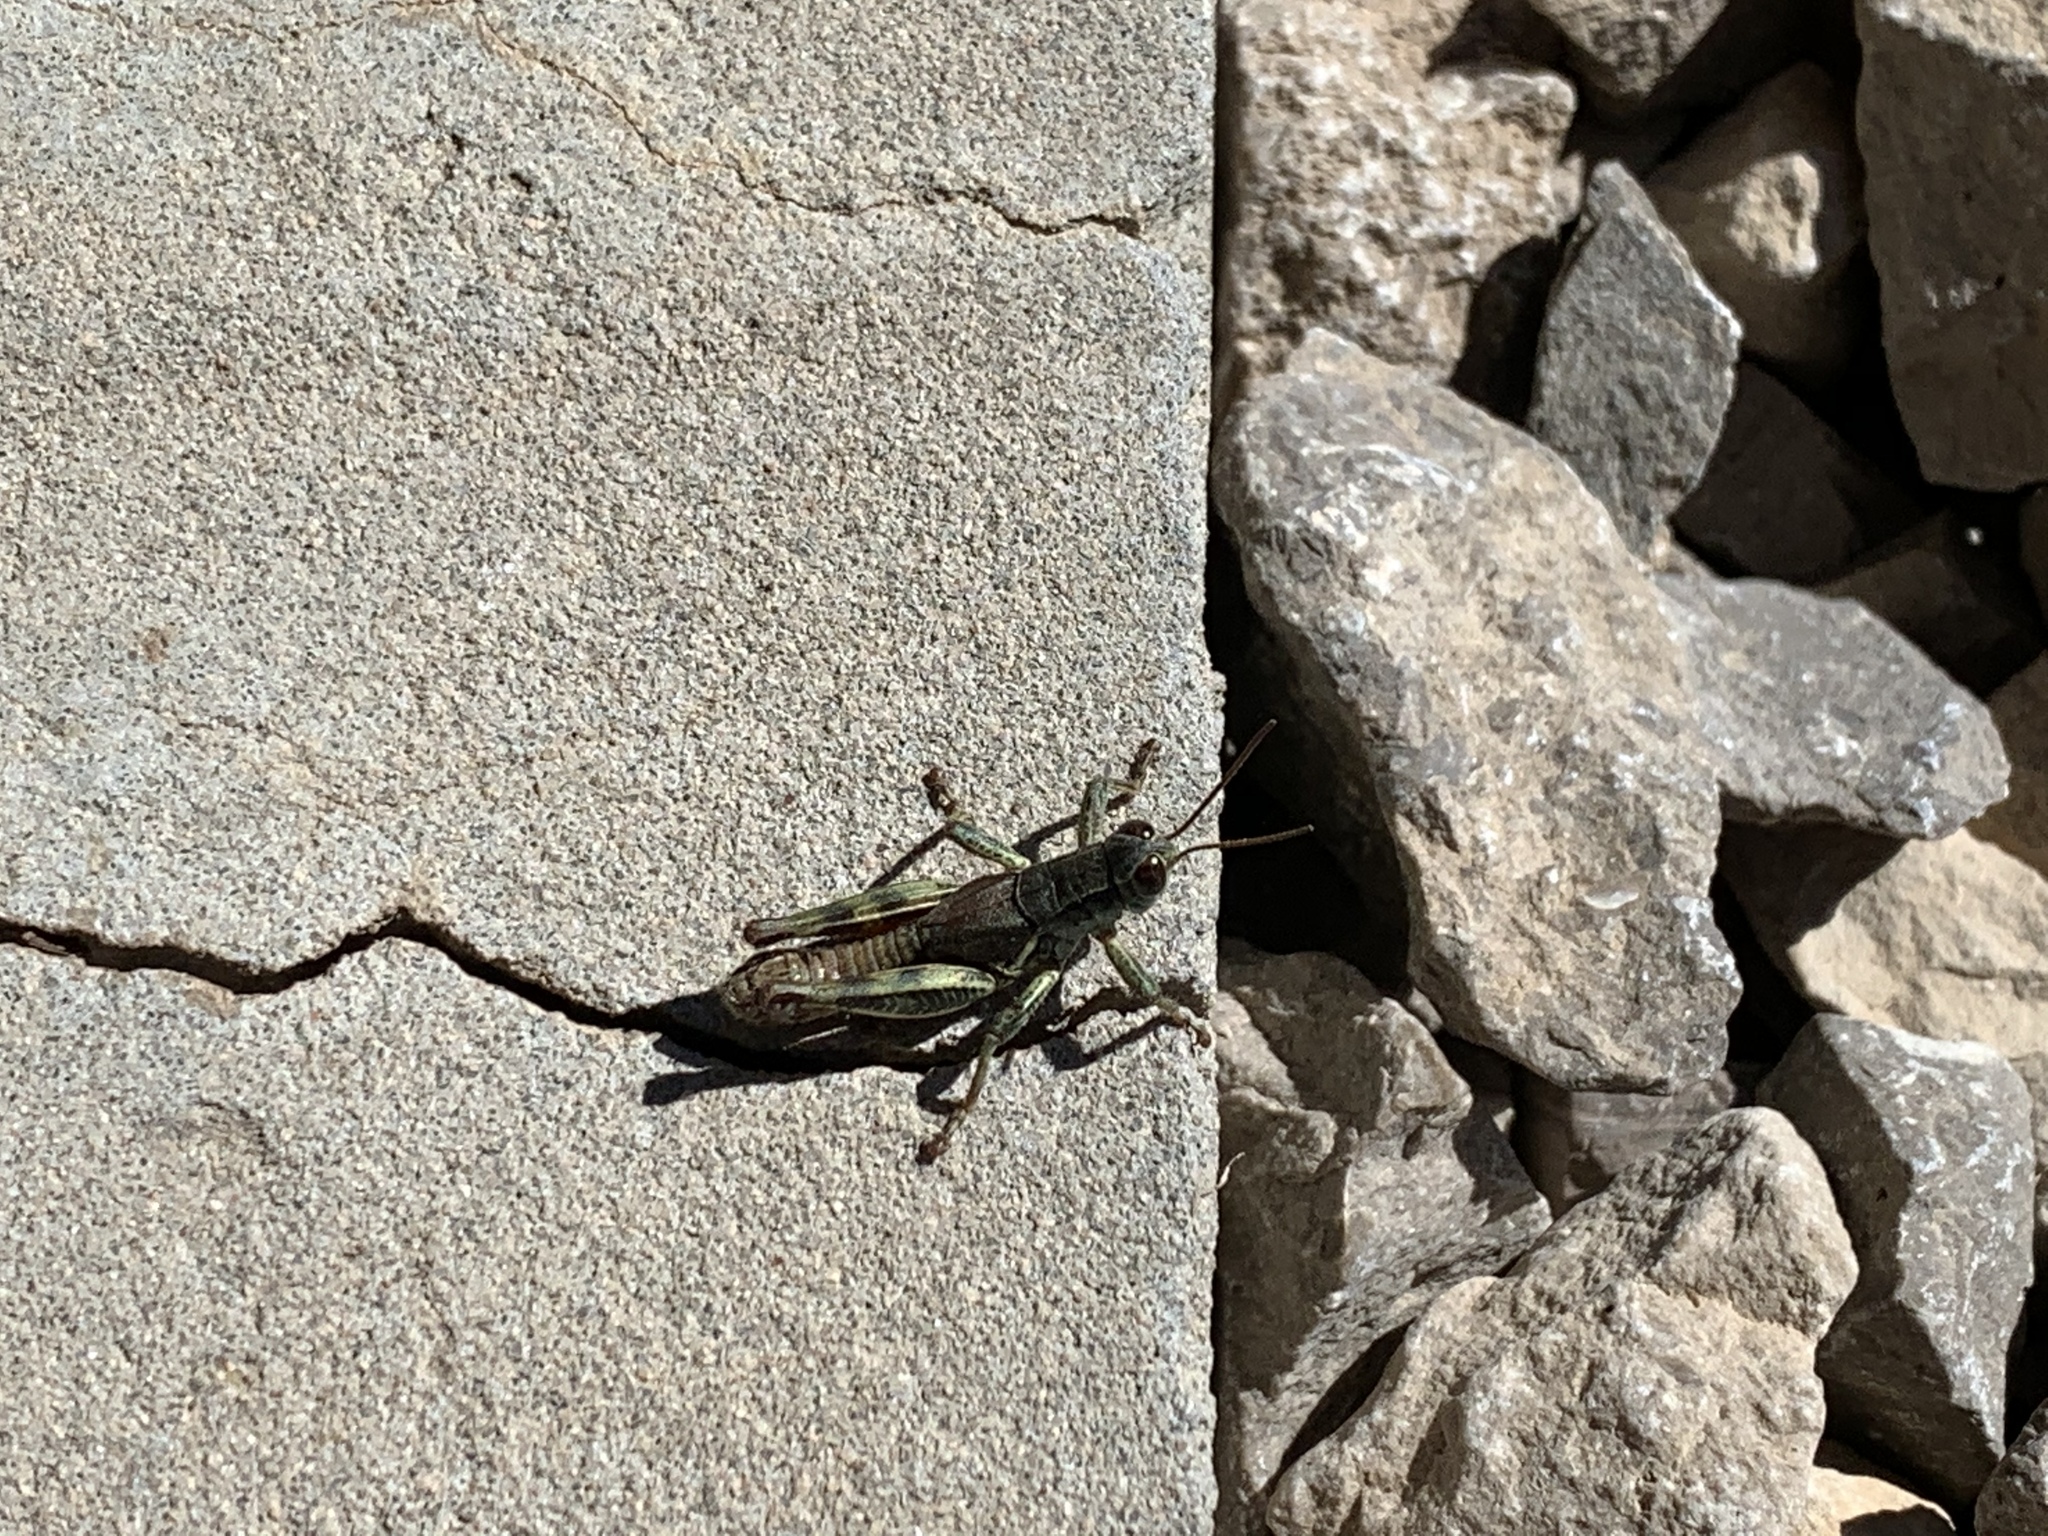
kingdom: Animalia
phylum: Arthropoda
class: Insecta
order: Orthoptera
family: Acrididae
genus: Melanoplus
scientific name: Melanoplus adapi
